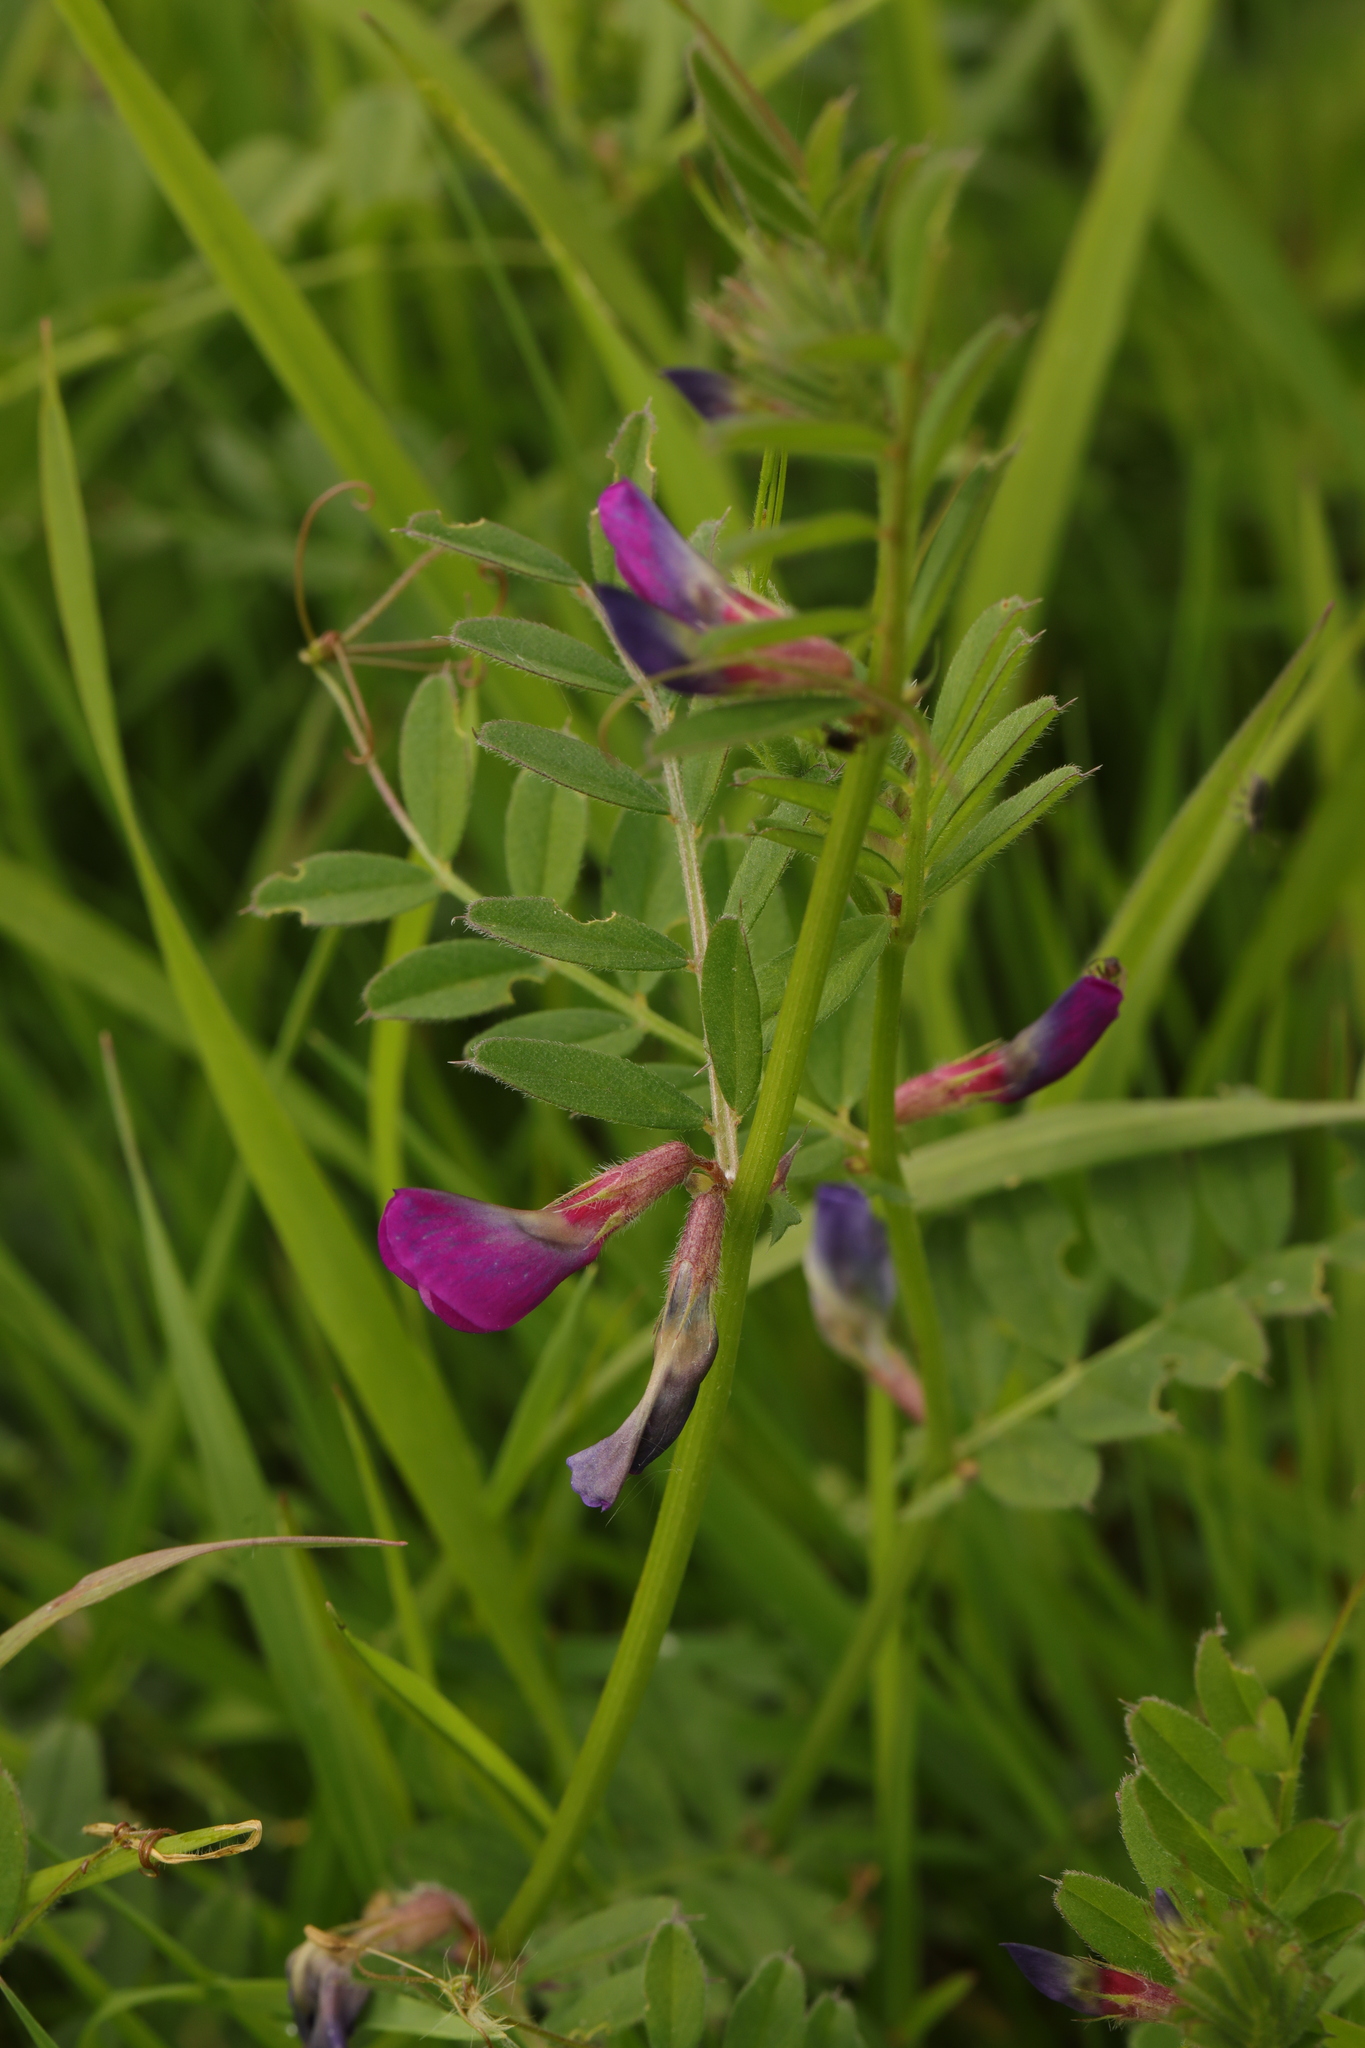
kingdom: Plantae
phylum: Tracheophyta
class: Magnoliopsida
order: Fabales
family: Fabaceae
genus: Vicia
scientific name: Vicia sativa
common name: Garden vetch
